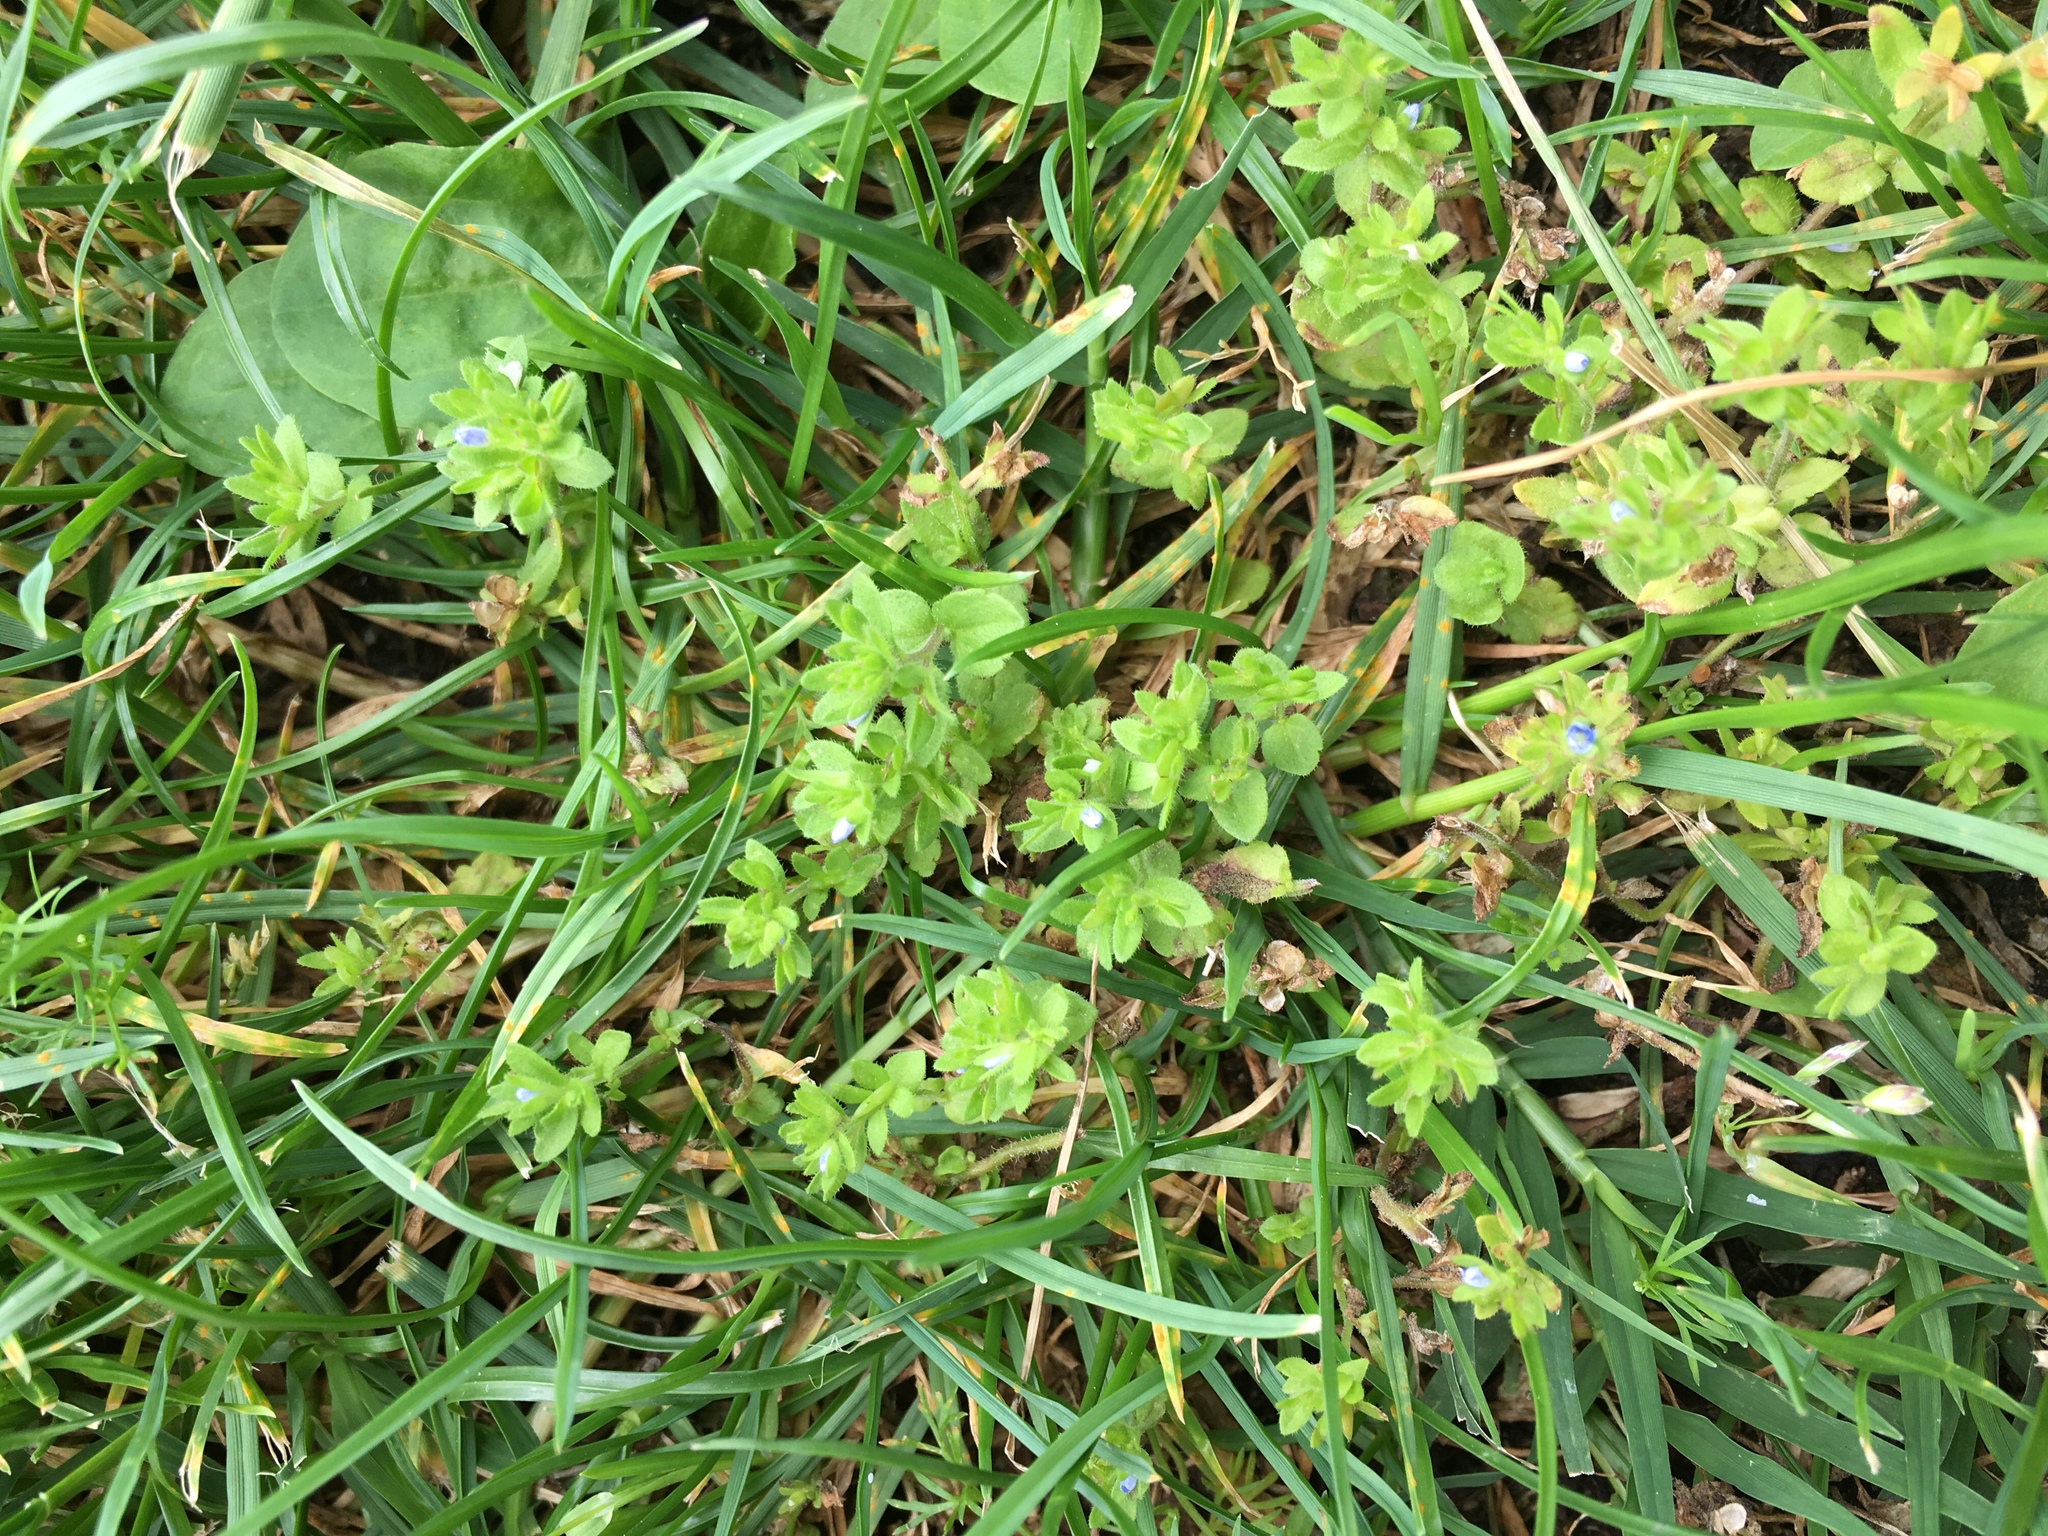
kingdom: Plantae
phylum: Tracheophyta
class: Magnoliopsida
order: Lamiales
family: Plantaginaceae
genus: Veronica
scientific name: Veronica arvensis
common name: Corn speedwell
